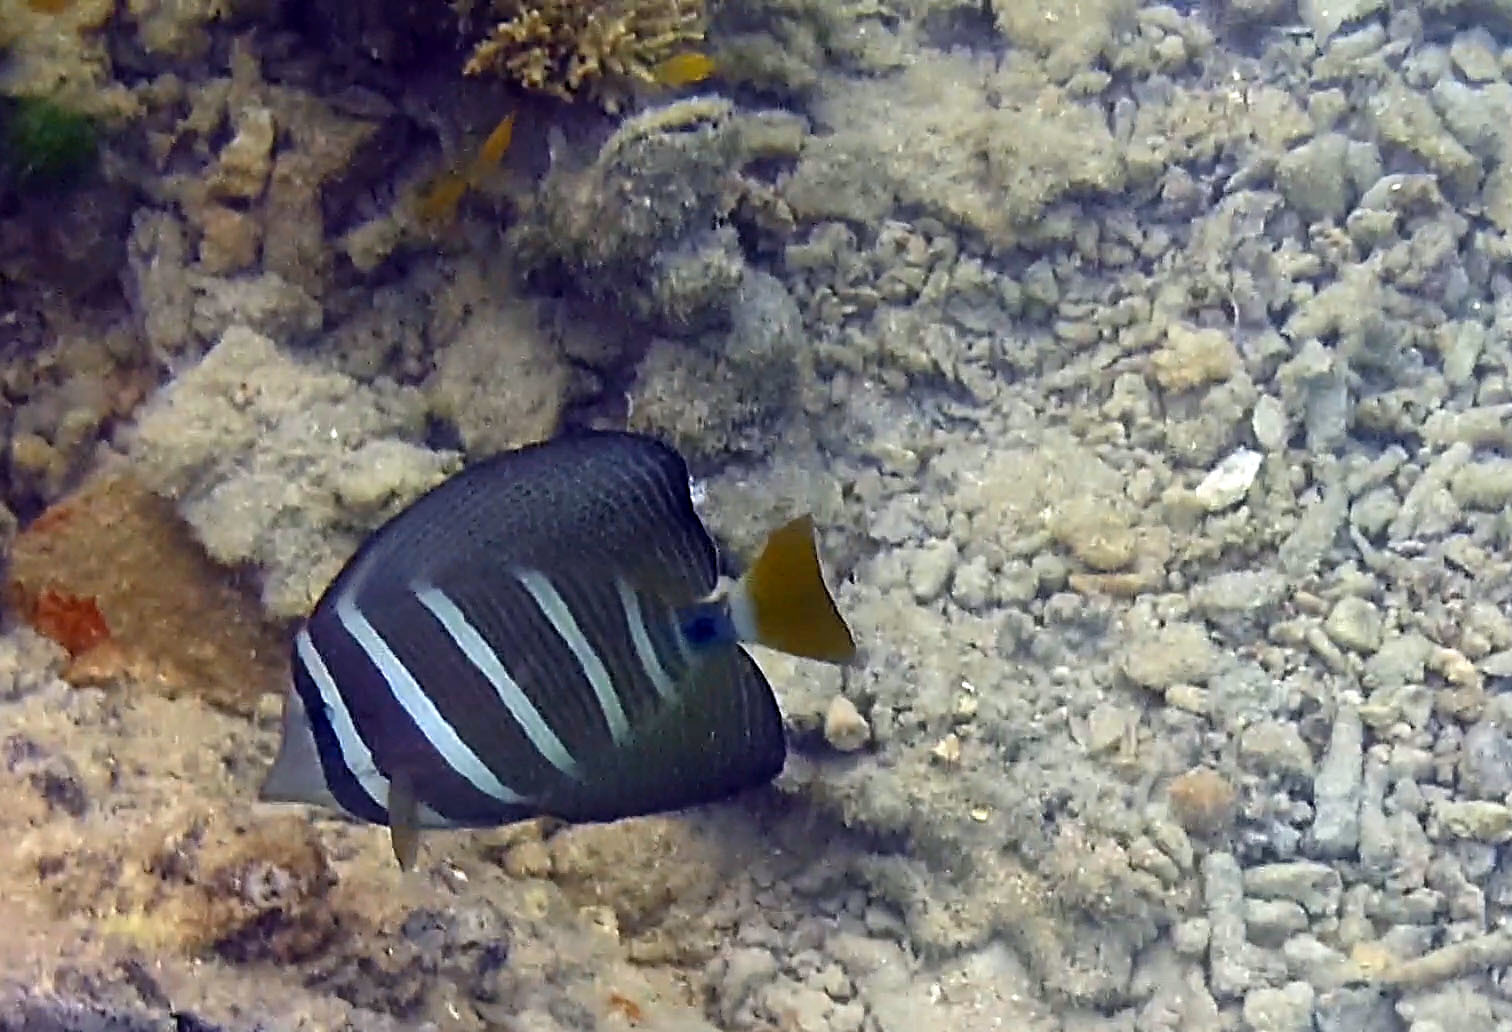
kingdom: Animalia
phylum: Chordata
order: Perciformes
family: Acanthuridae
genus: Zebrasoma
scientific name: Zebrasoma veliferum
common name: Sailfin surgeonfish
